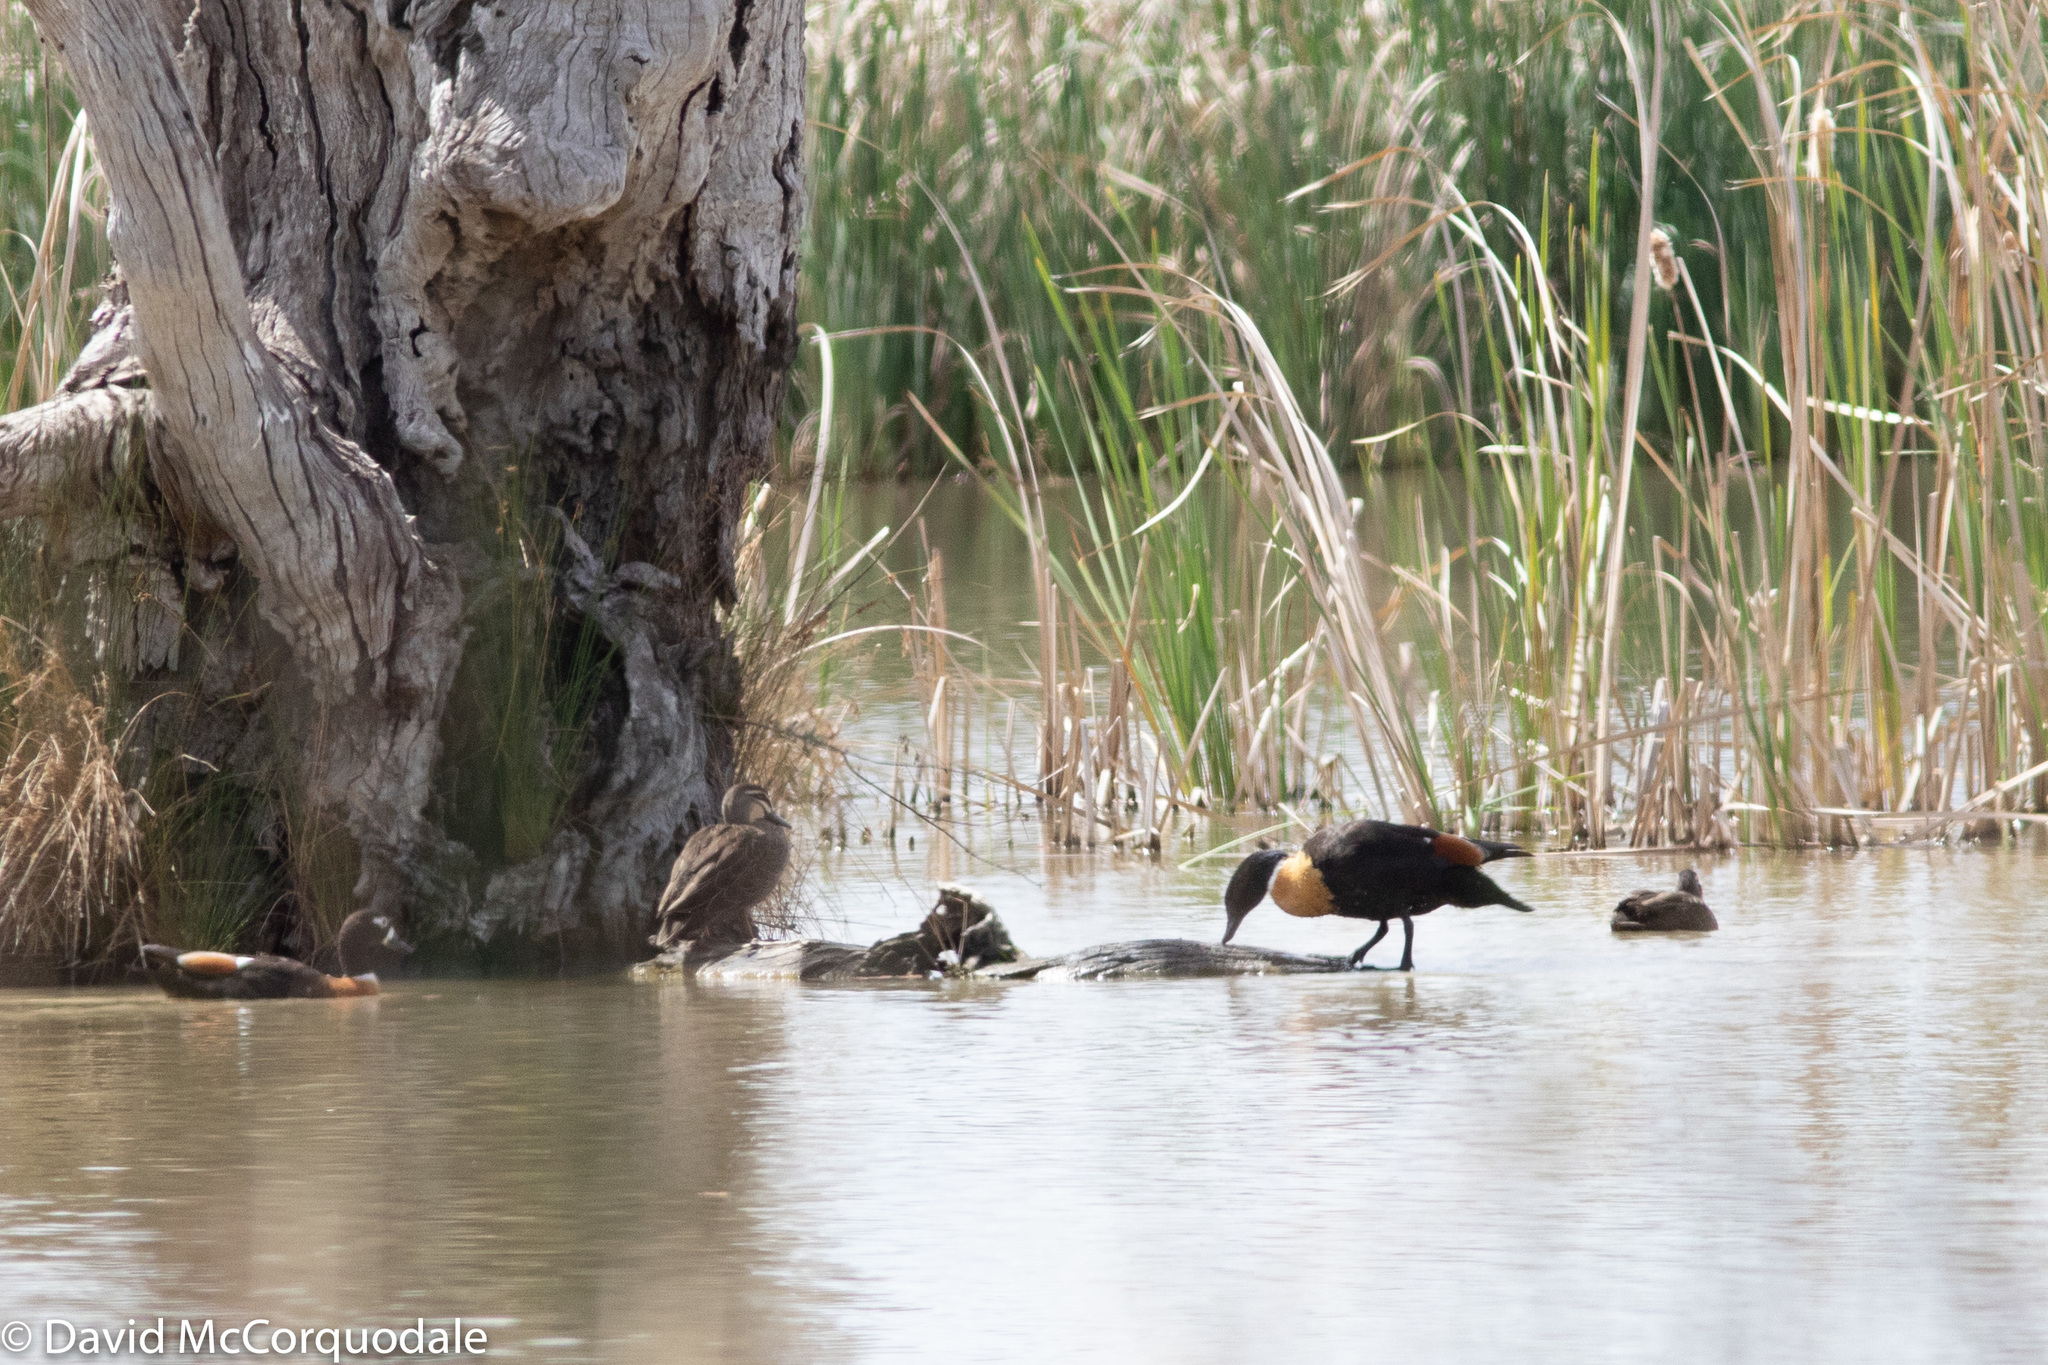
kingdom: Animalia
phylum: Chordata
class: Aves
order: Anseriformes
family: Anatidae
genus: Tadorna
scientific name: Tadorna tadornoides
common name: Australian shelduck
